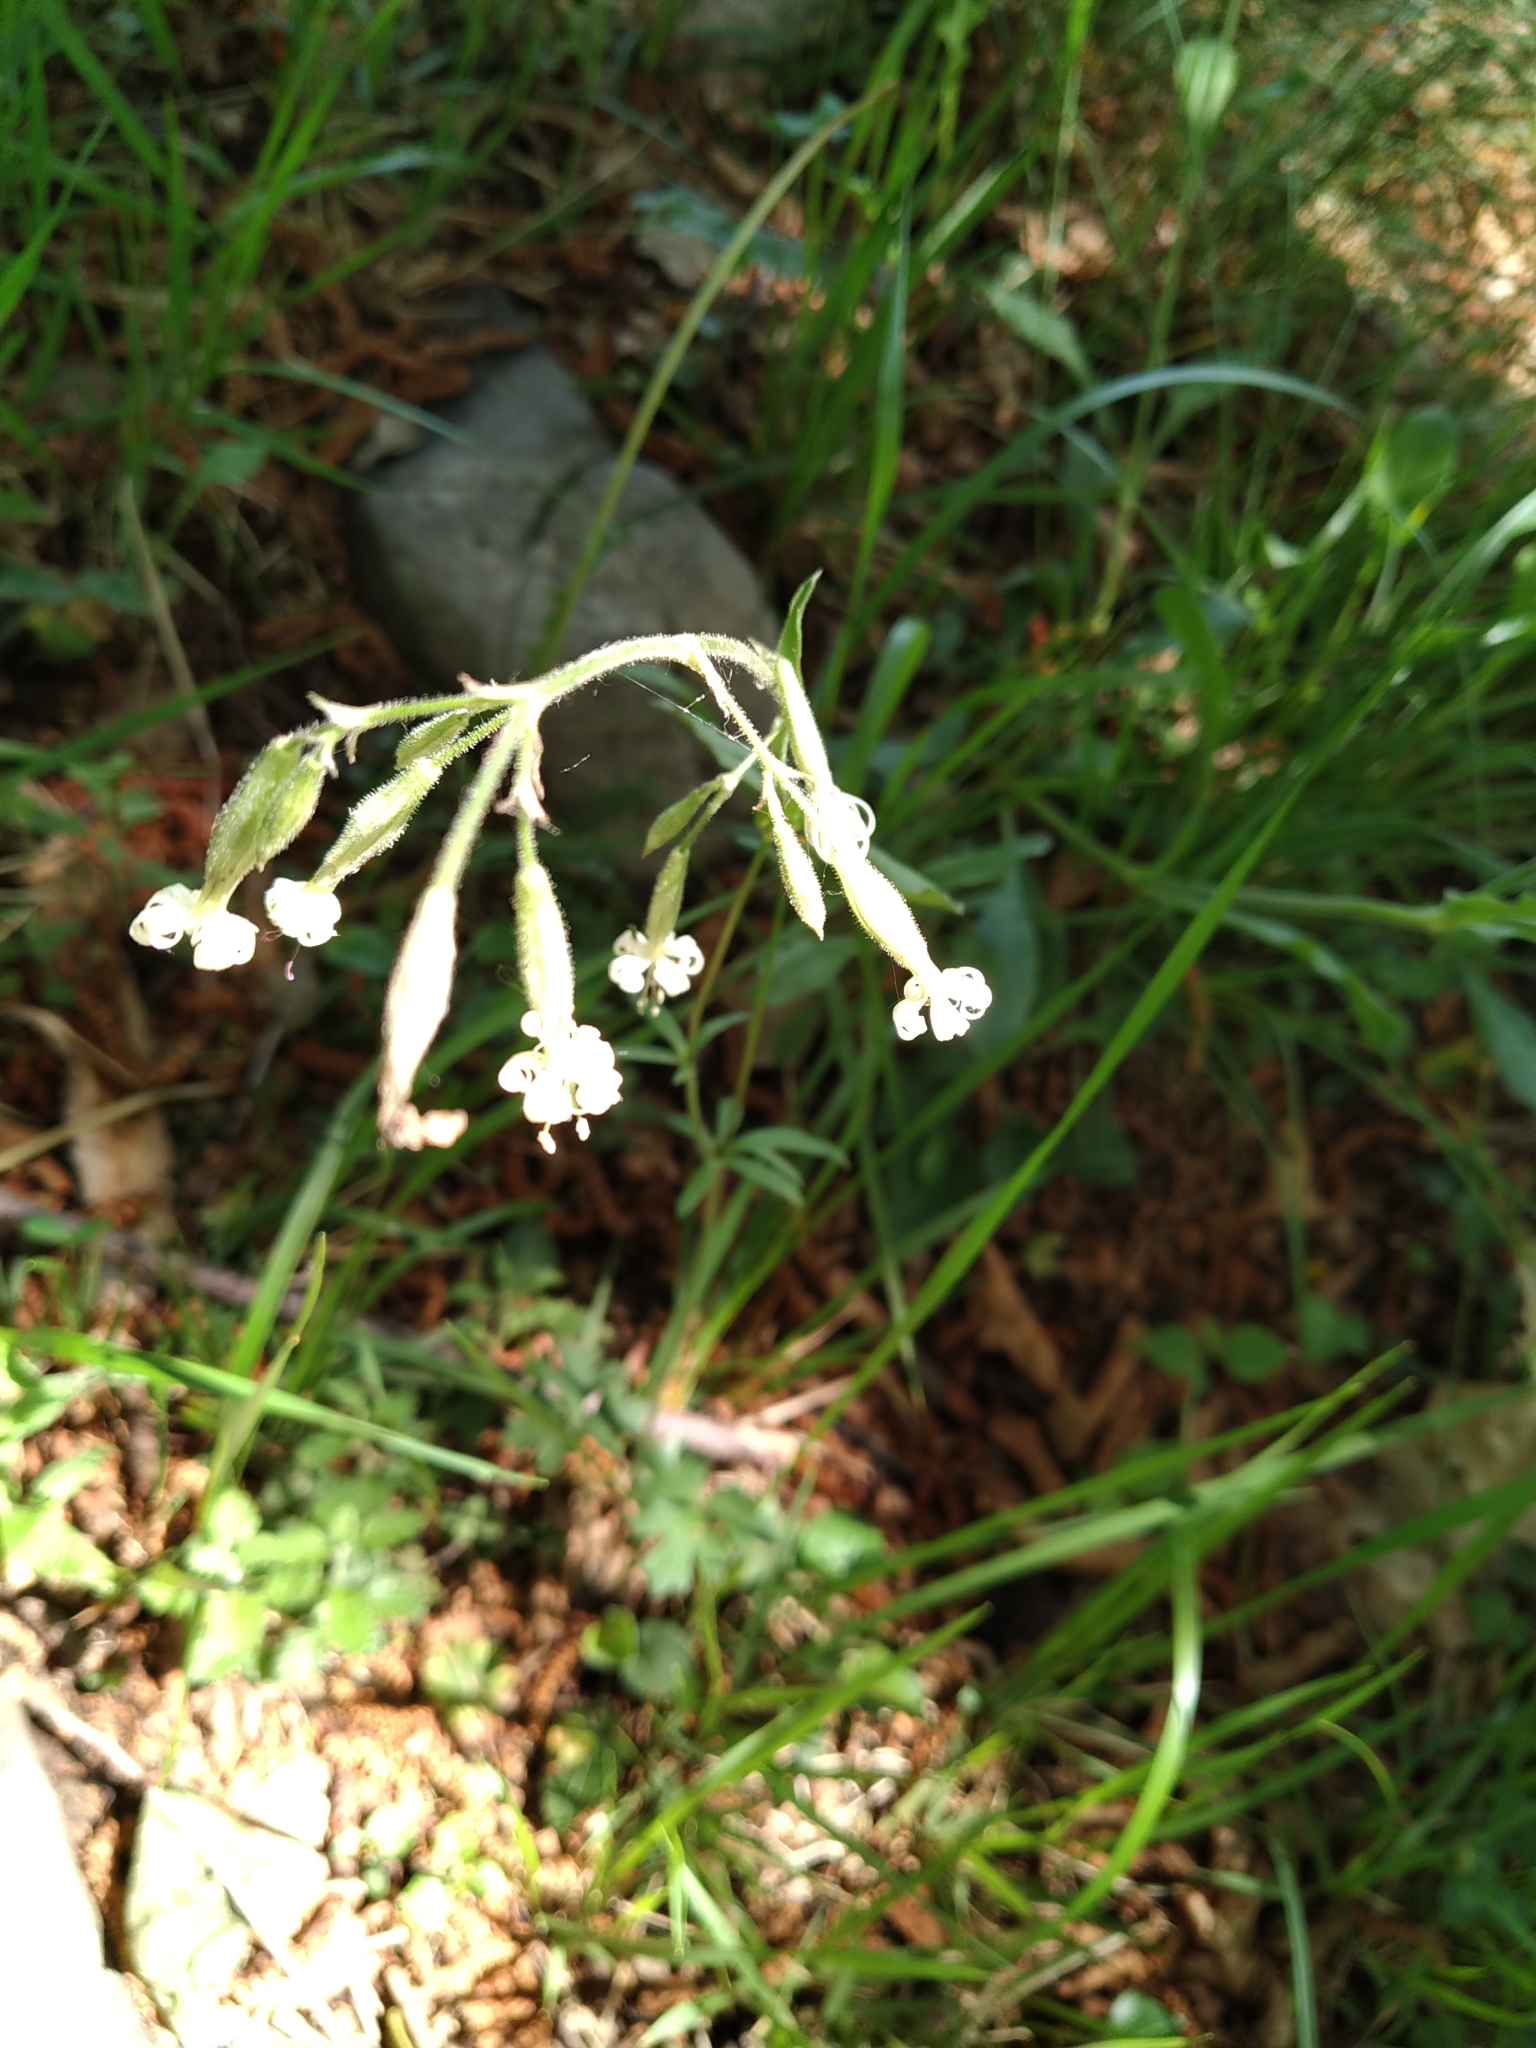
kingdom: Plantae
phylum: Tracheophyta
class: Magnoliopsida
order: Caryophyllales
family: Caryophyllaceae
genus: Silene
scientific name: Silene nutans
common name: Nottingham catchfly
